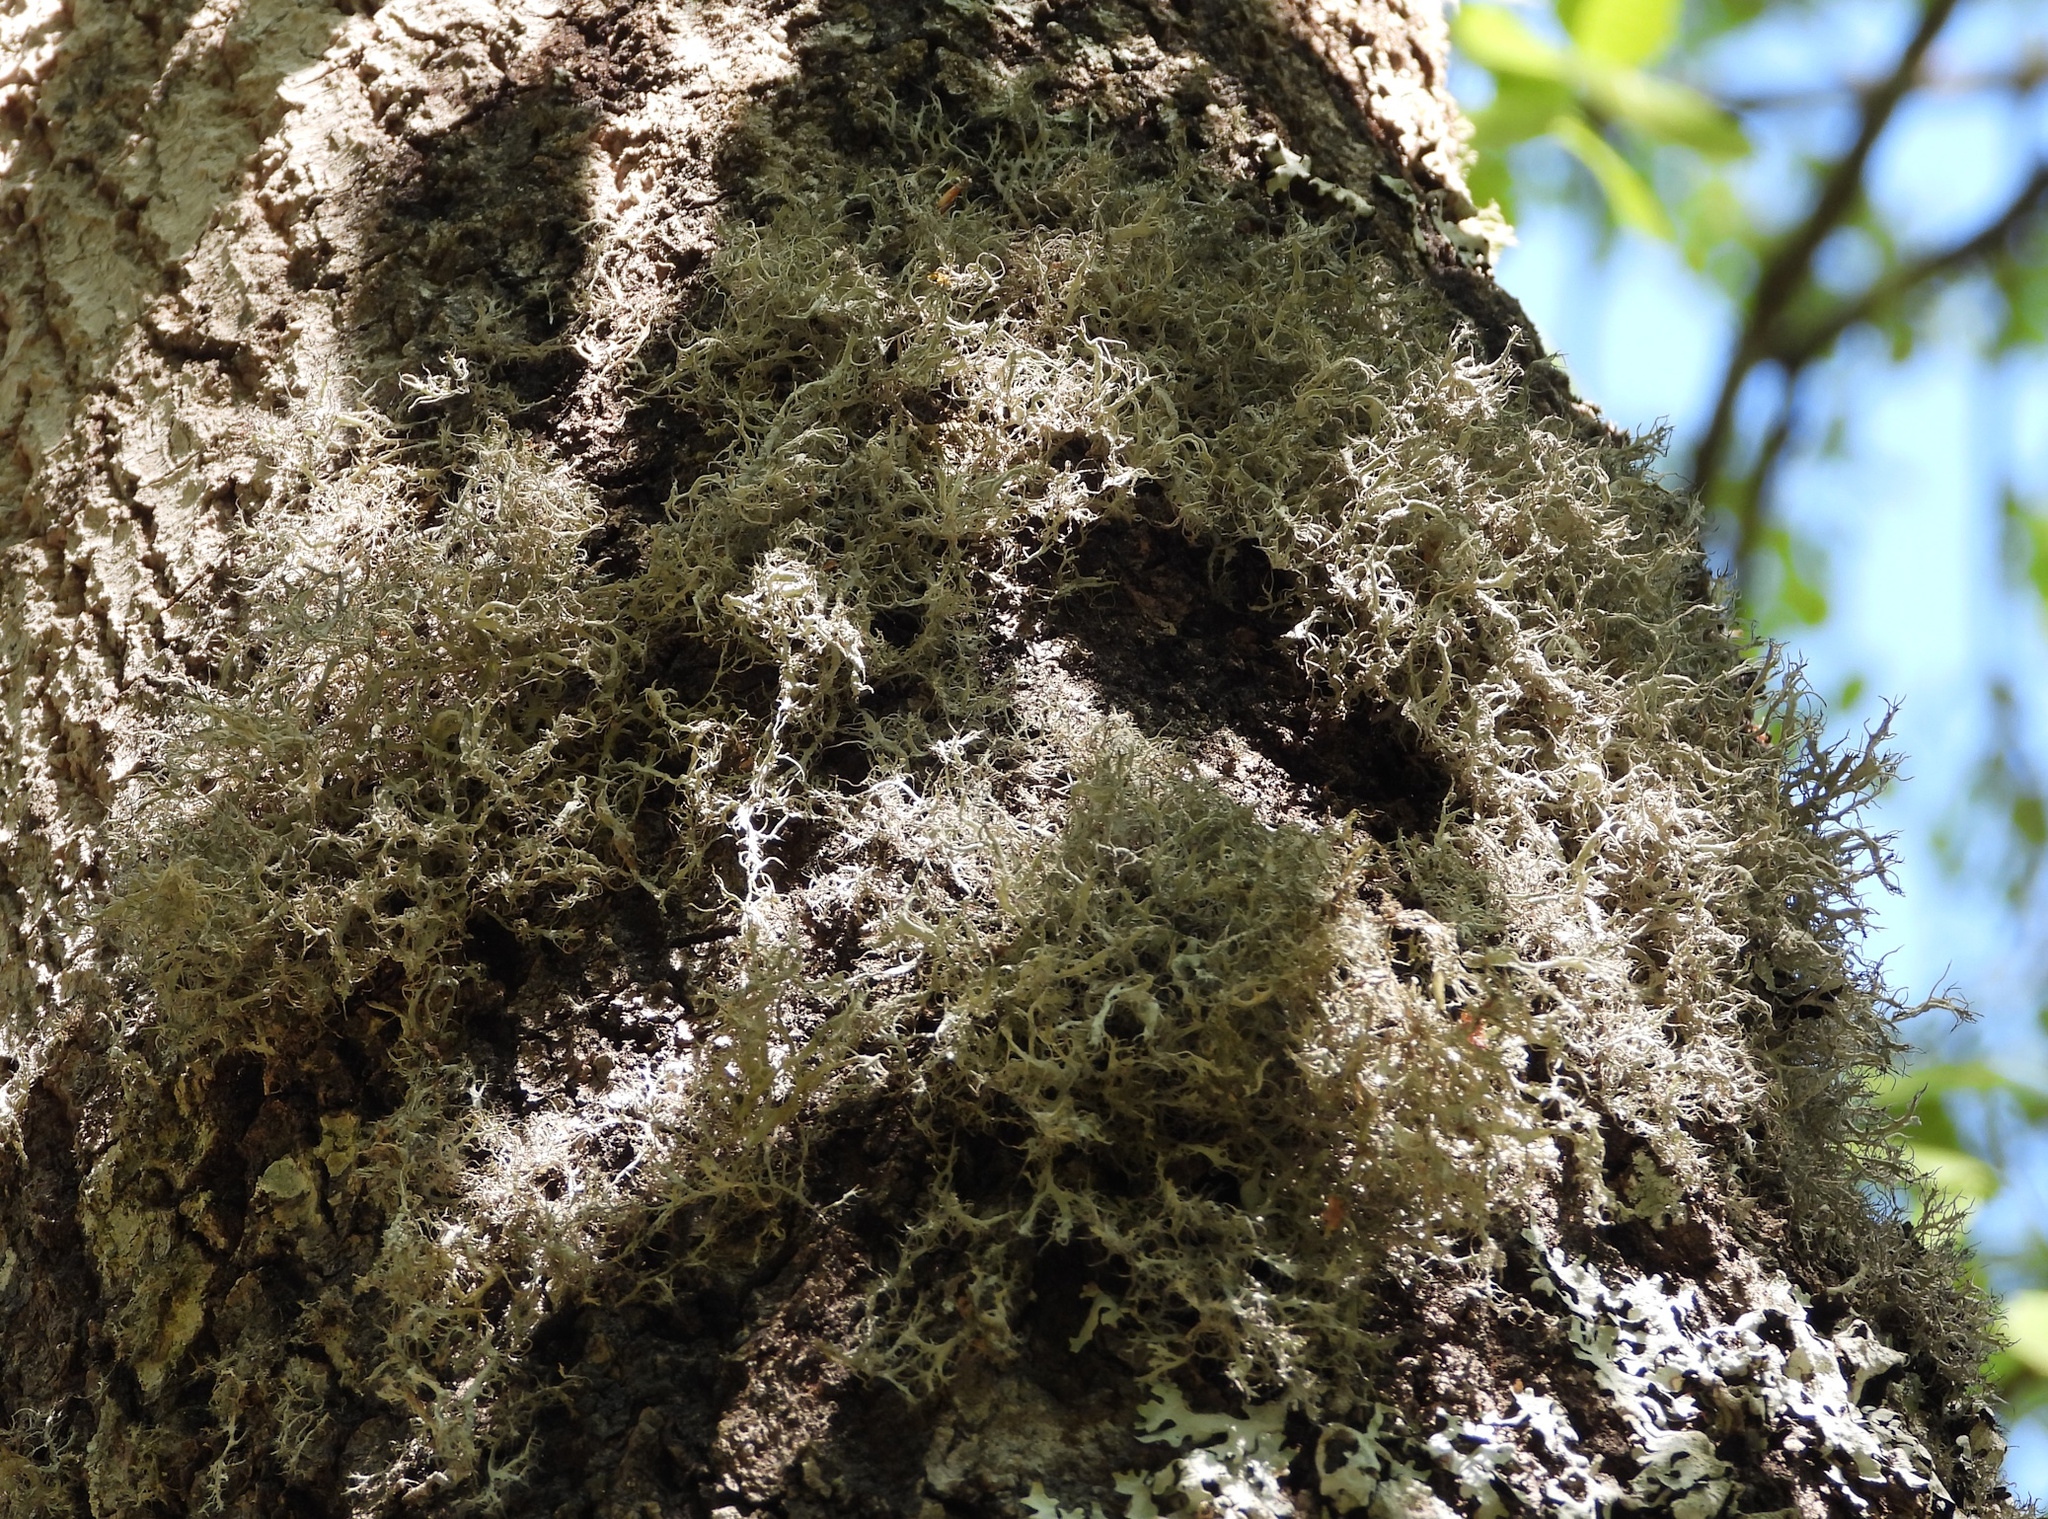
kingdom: Fungi
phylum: Ascomycota
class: Lecanoromycetes
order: Caliciales
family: Physciaceae
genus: Anaptychia
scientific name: Anaptychia ciliaris
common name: Great ciliated lichen
